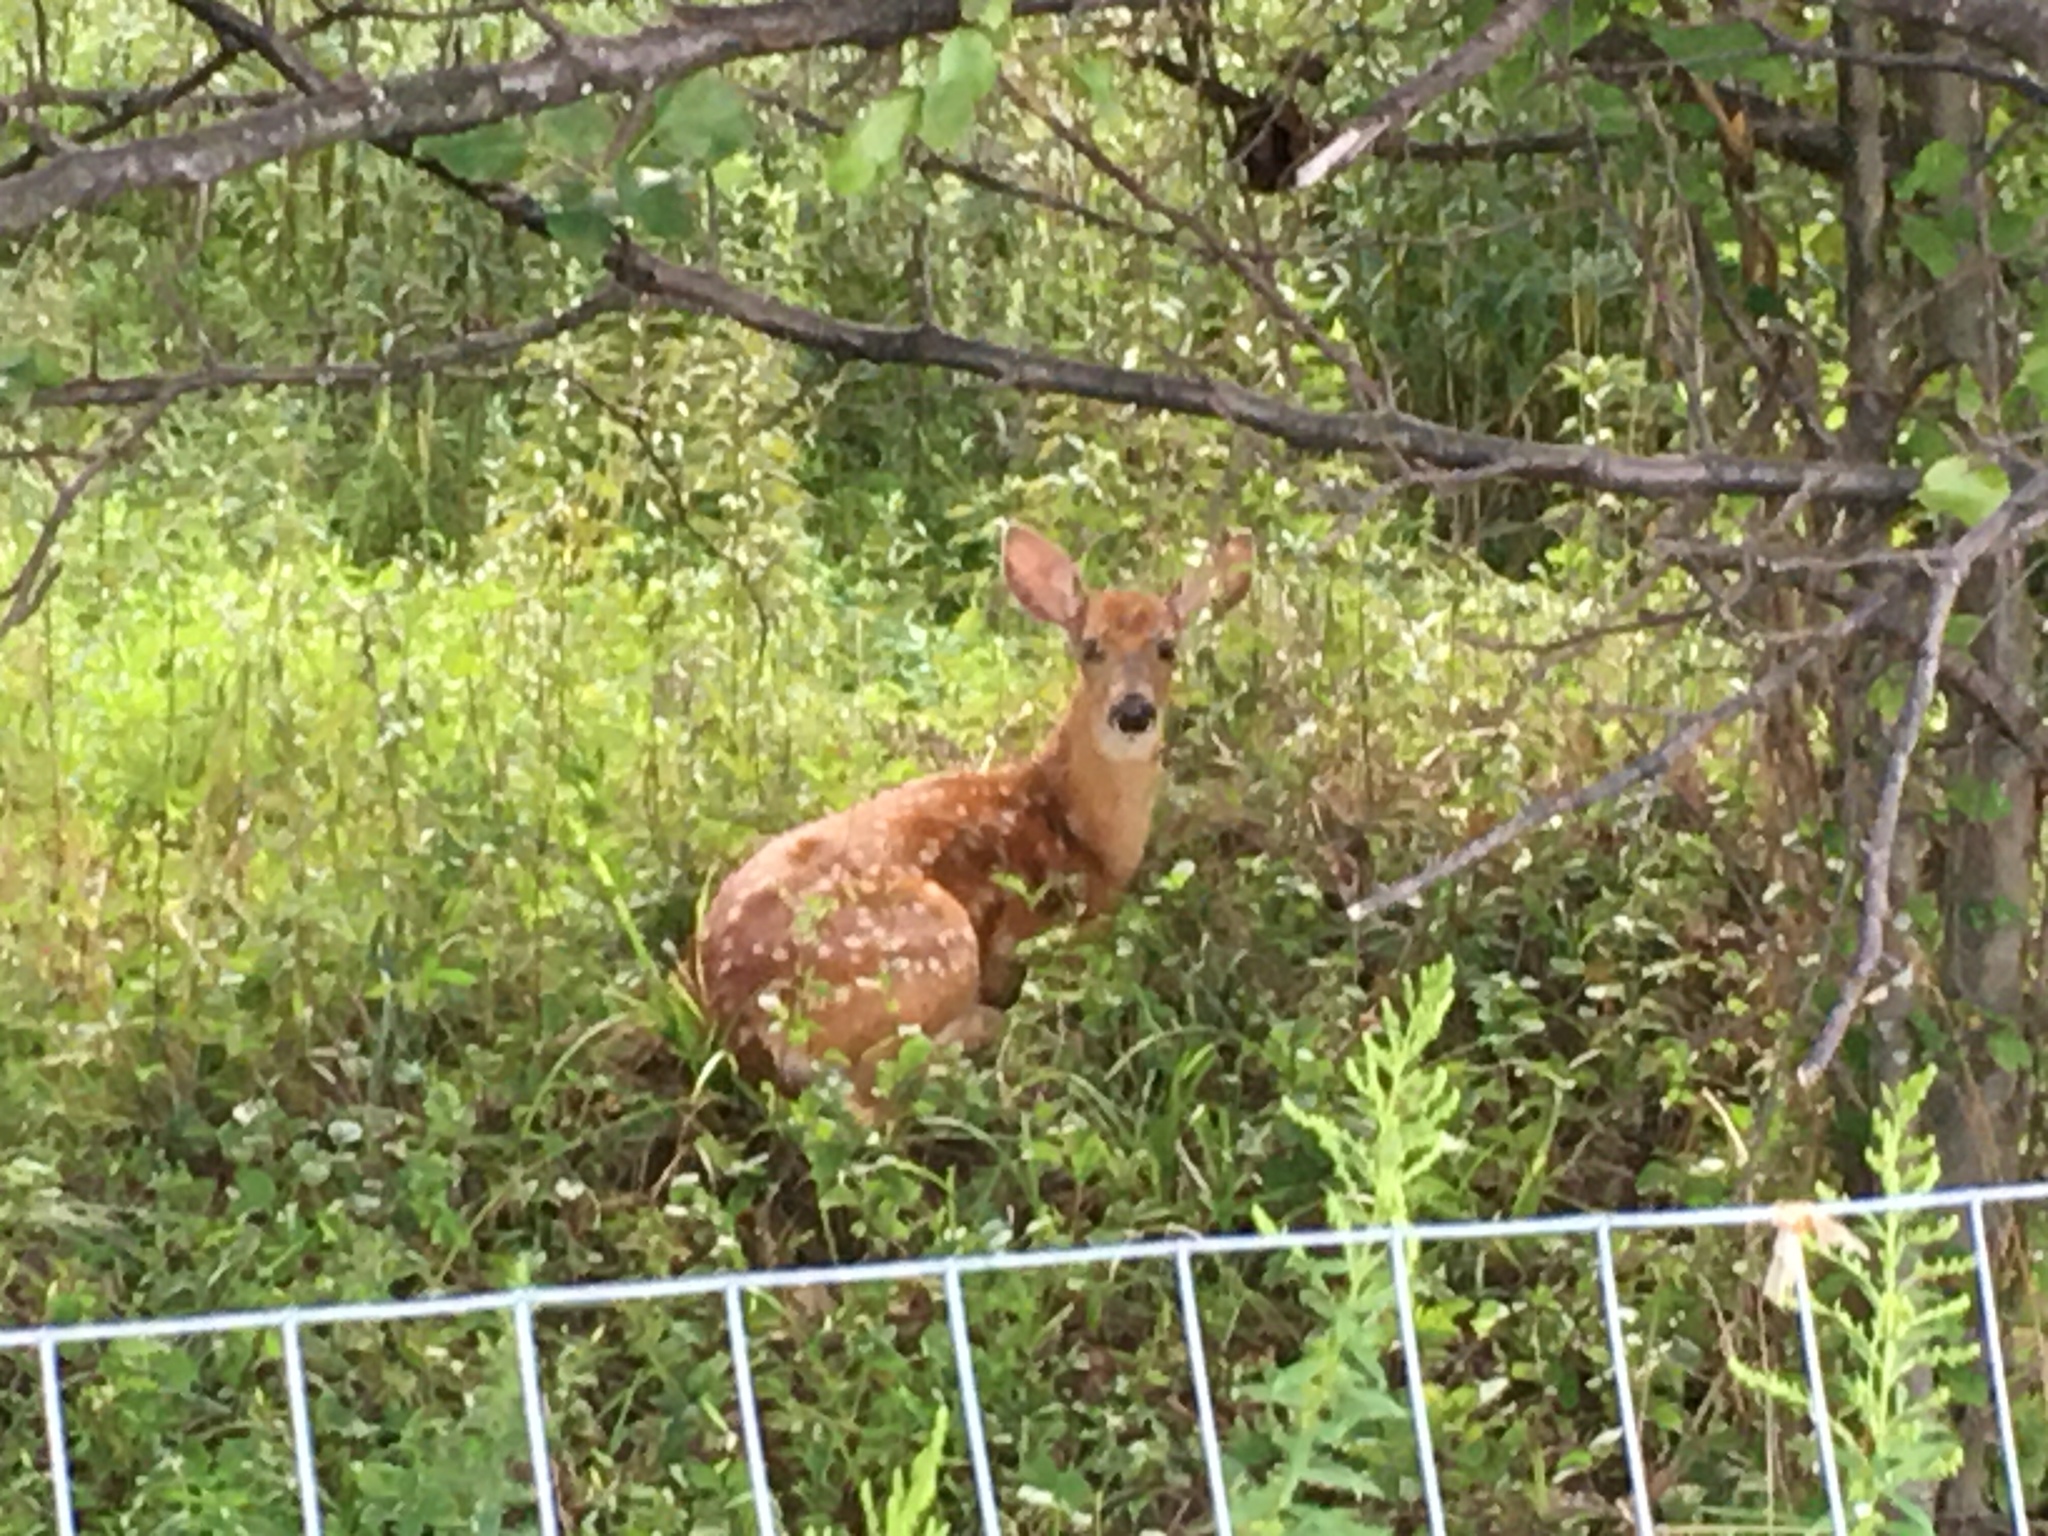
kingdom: Animalia
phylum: Chordata
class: Mammalia
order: Artiodactyla
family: Cervidae
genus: Odocoileus
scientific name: Odocoileus virginianus
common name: White-tailed deer
